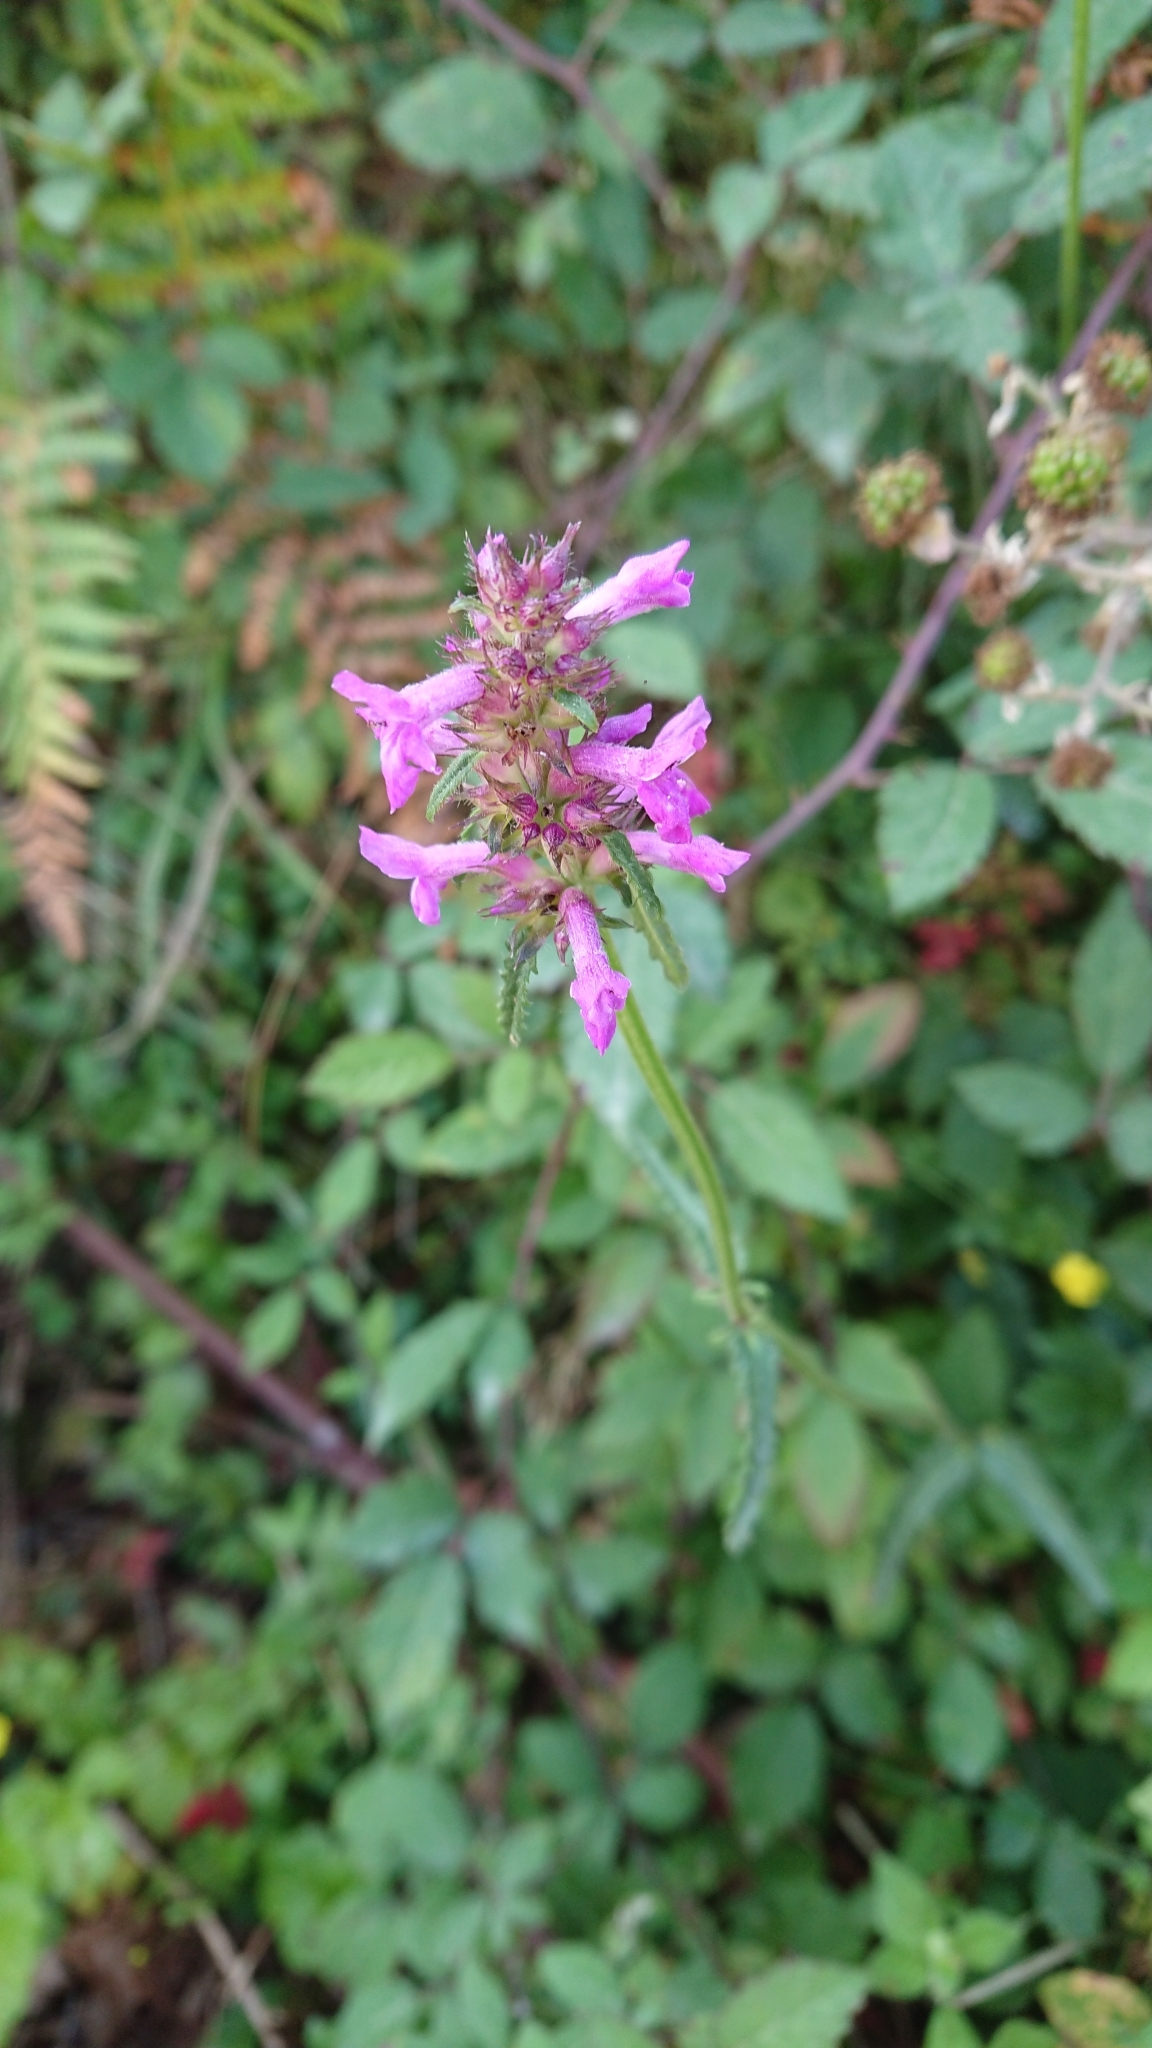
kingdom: Plantae
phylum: Tracheophyta
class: Magnoliopsida
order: Lamiales
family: Lamiaceae
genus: Betonica
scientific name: Betonica officinalis
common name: Bishop's-wort
